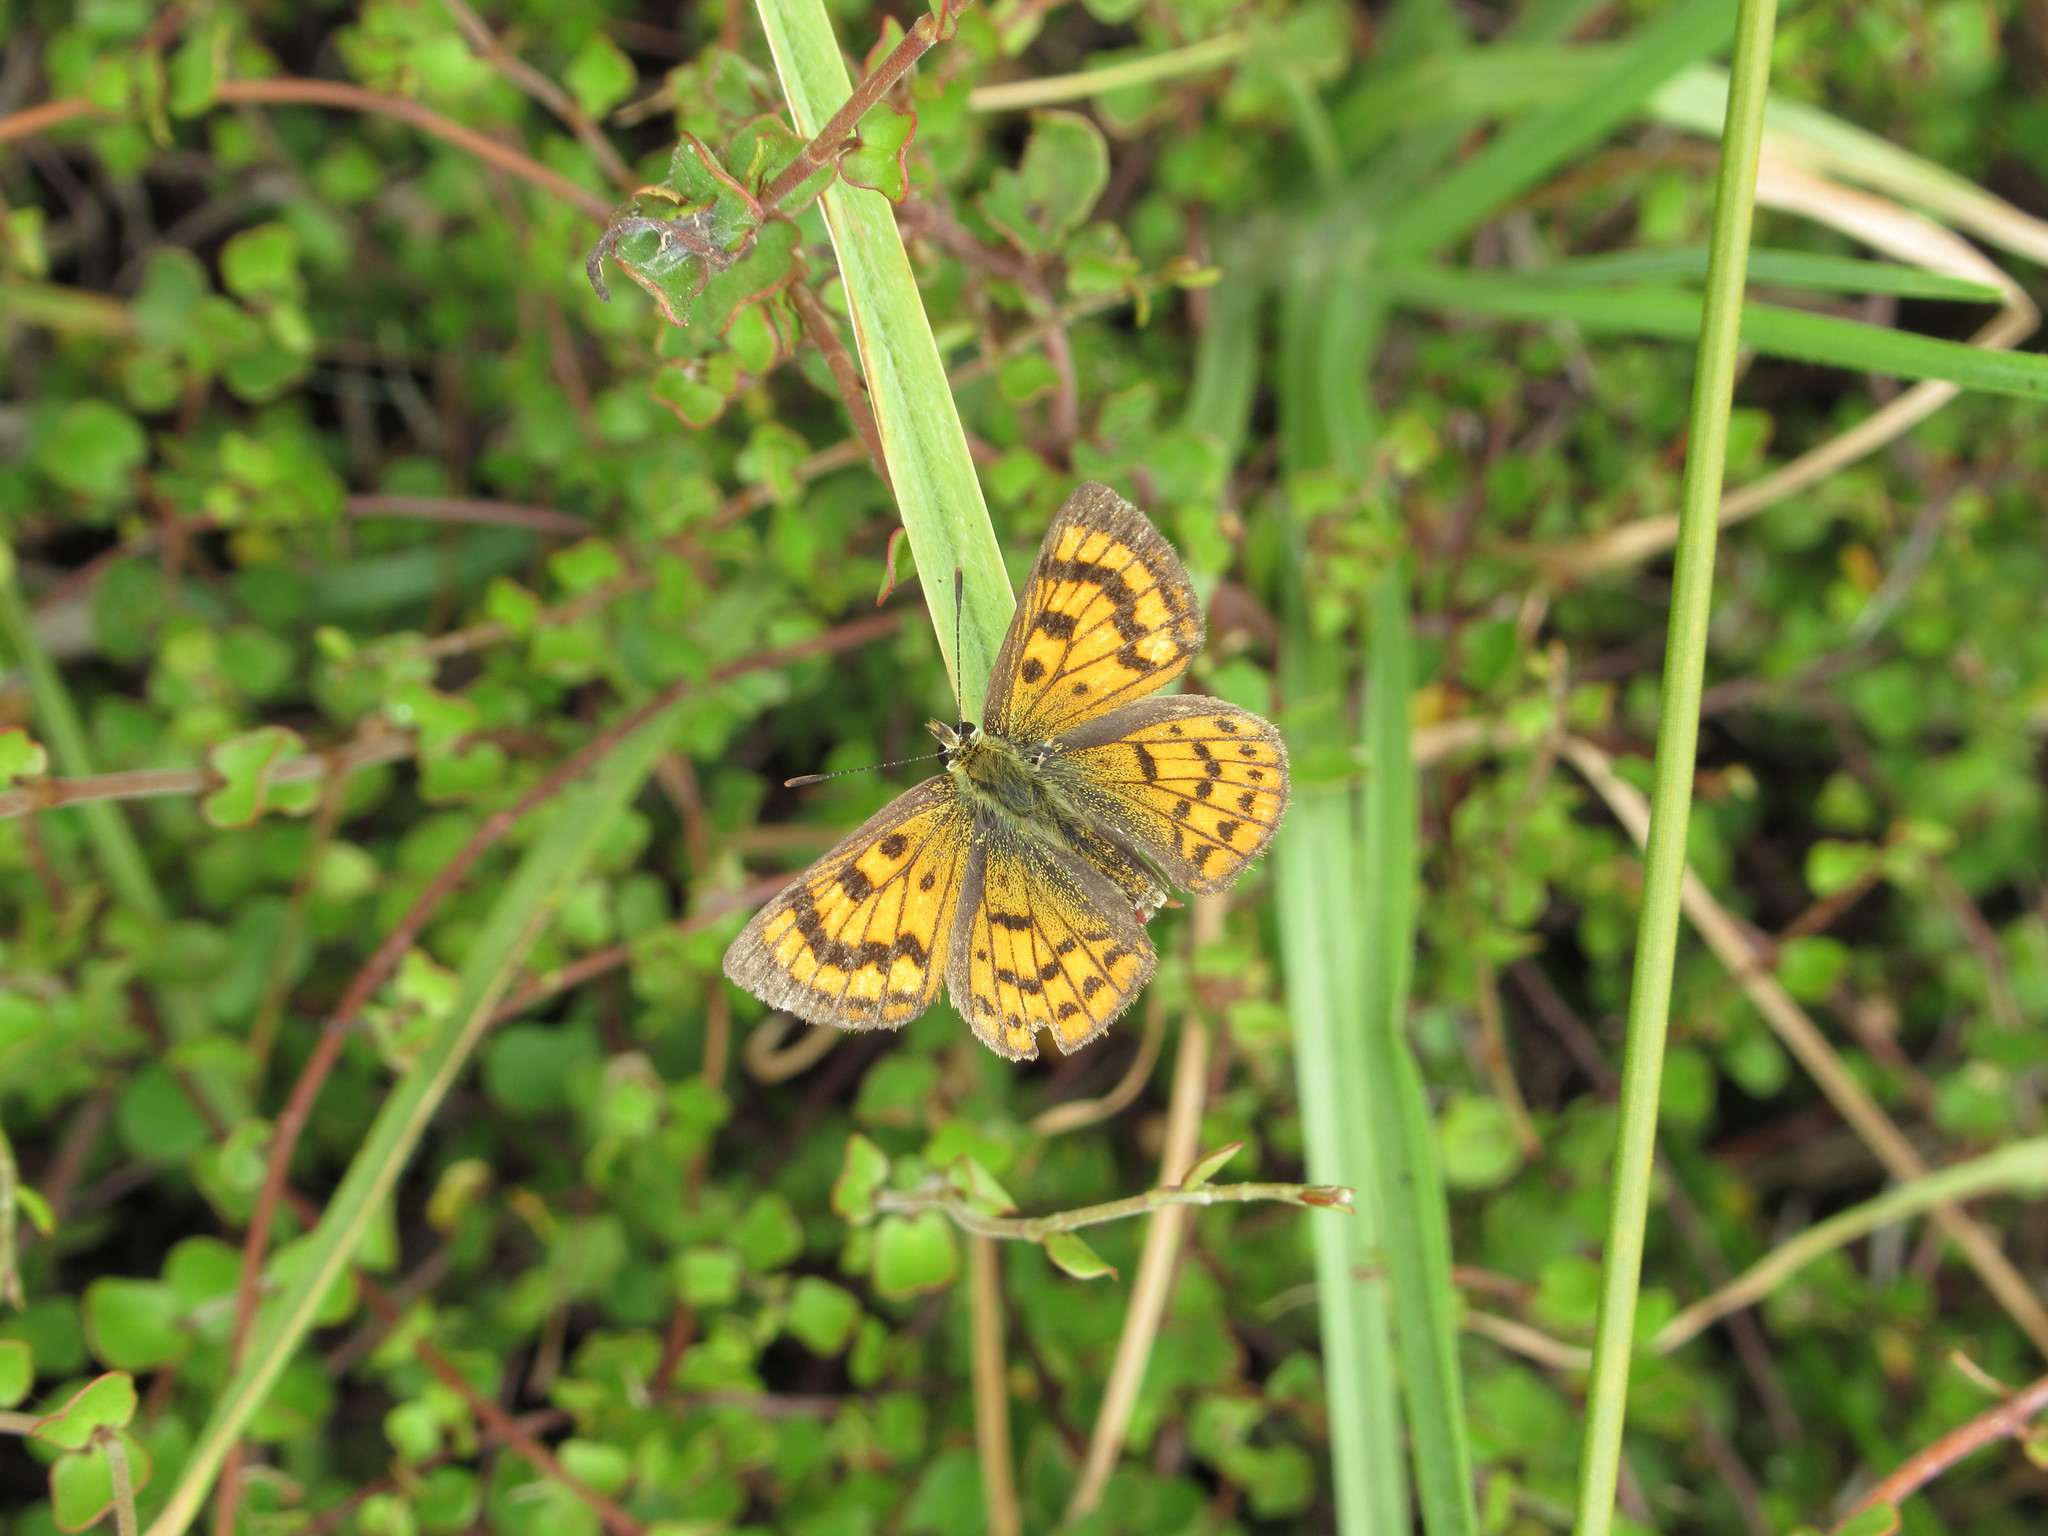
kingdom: Animalia
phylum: Arthropoda
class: Insecta
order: Lepidoptera
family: Lycaenidae
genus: Lycaena
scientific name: Lycaena salustius
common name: North island coastal copper
